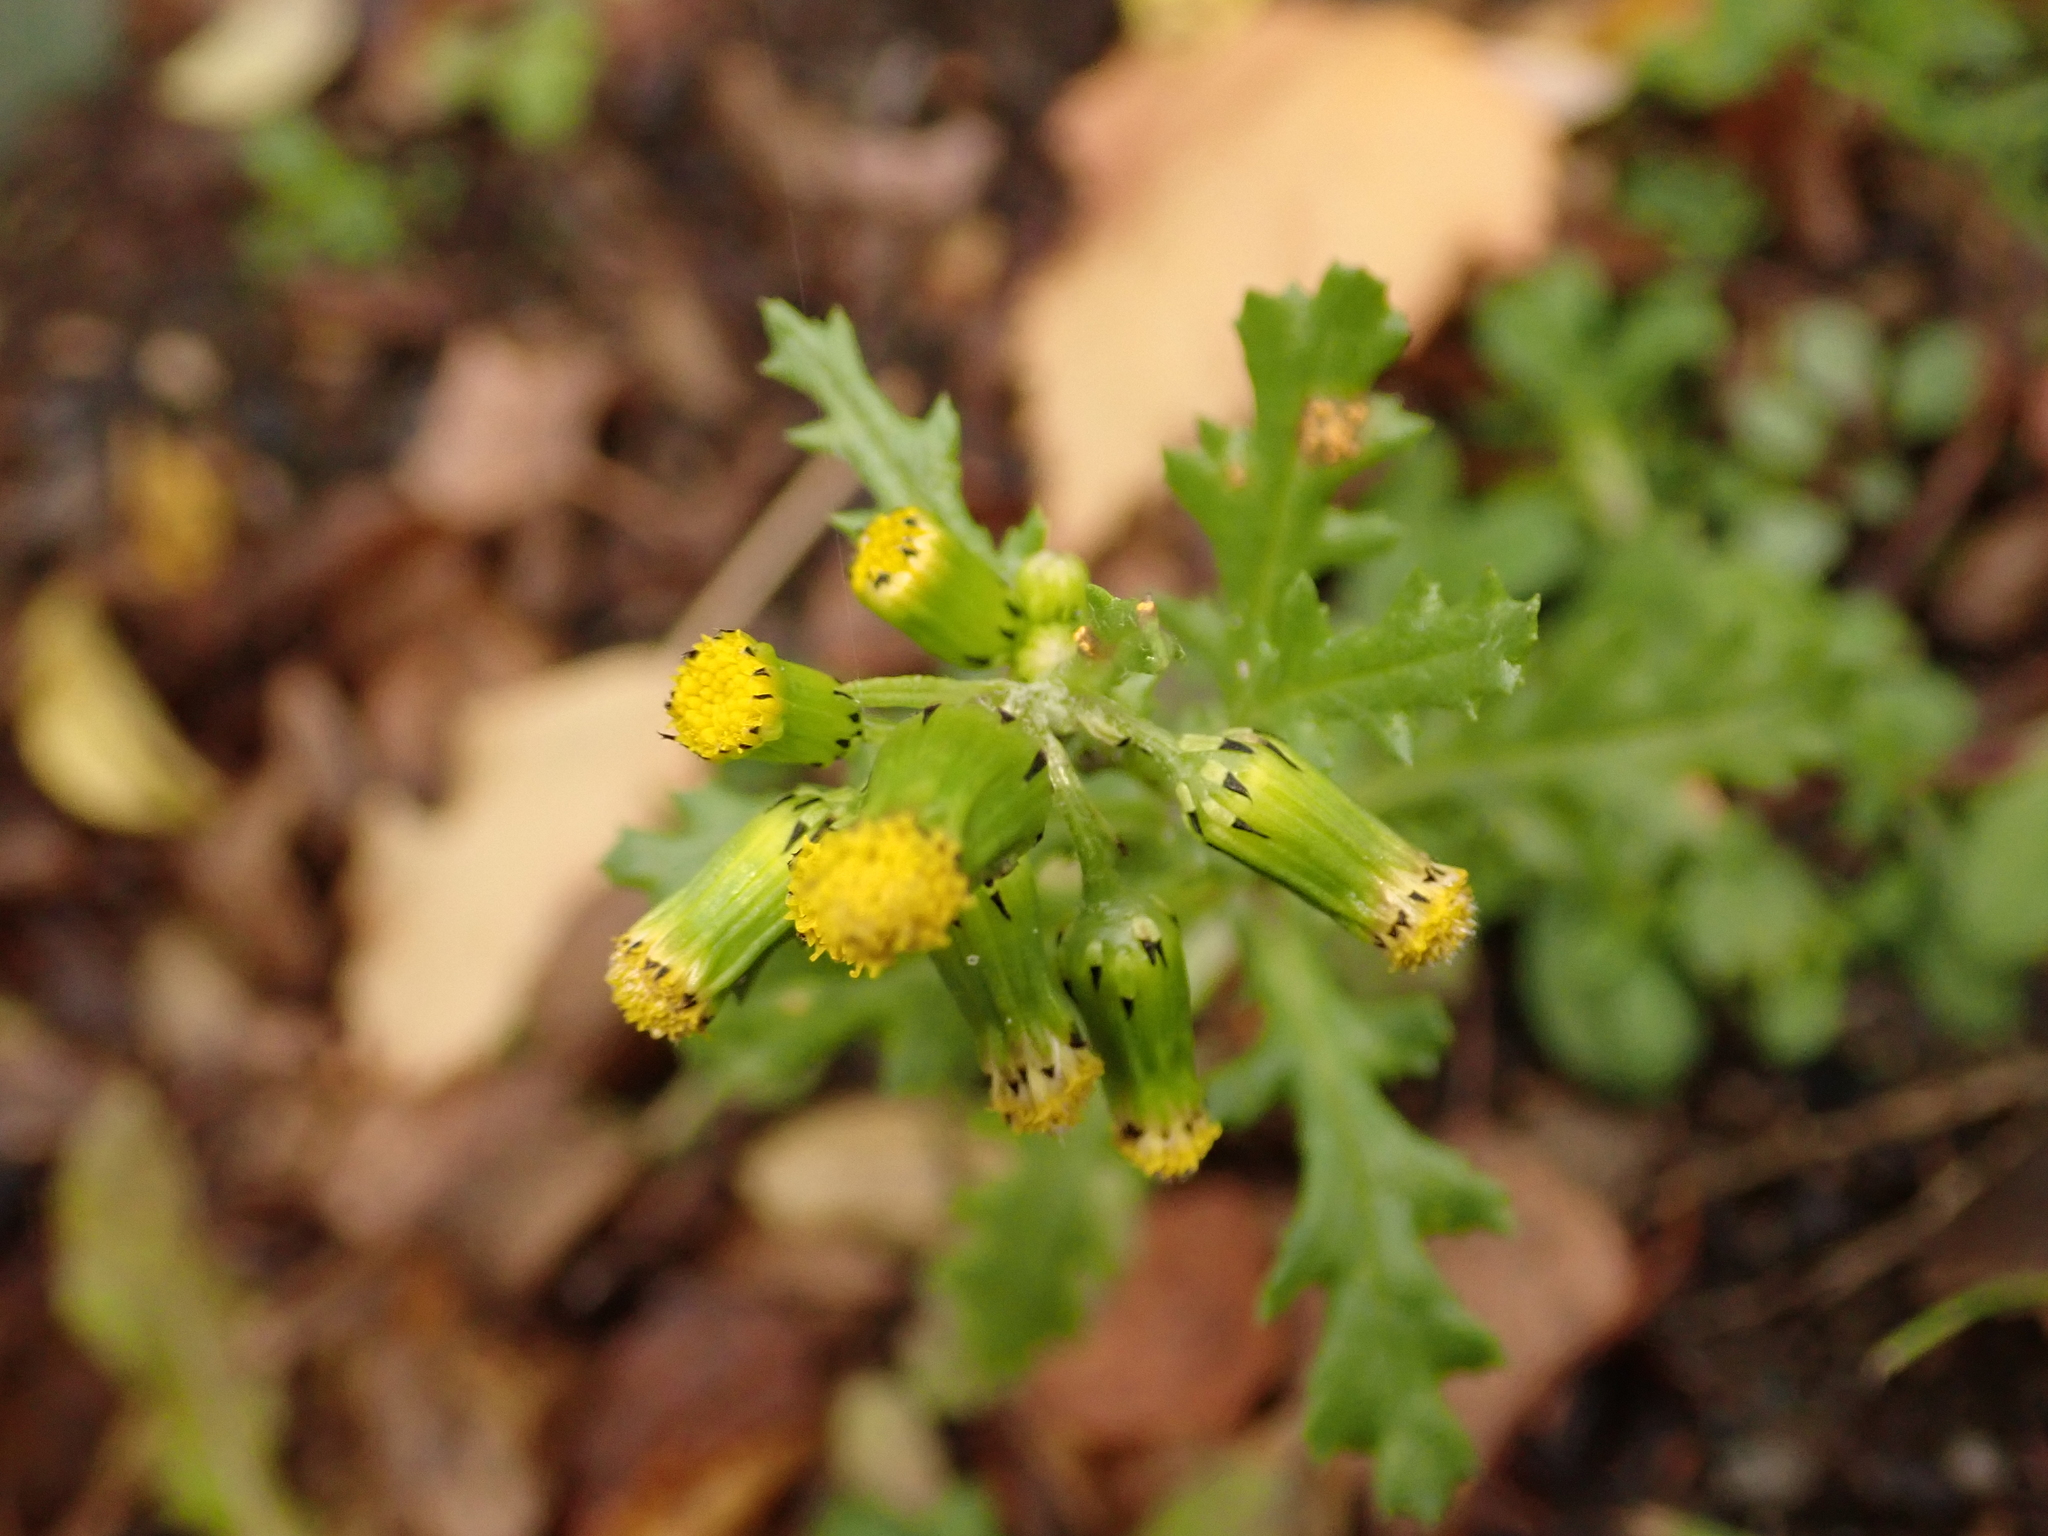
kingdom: Plantae
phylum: Tracheophyta
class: Magnoliopsida
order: Asterales
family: Asteraceae
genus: Senecio
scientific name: Senecio vulgaris
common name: Old-man-in-the-spring
